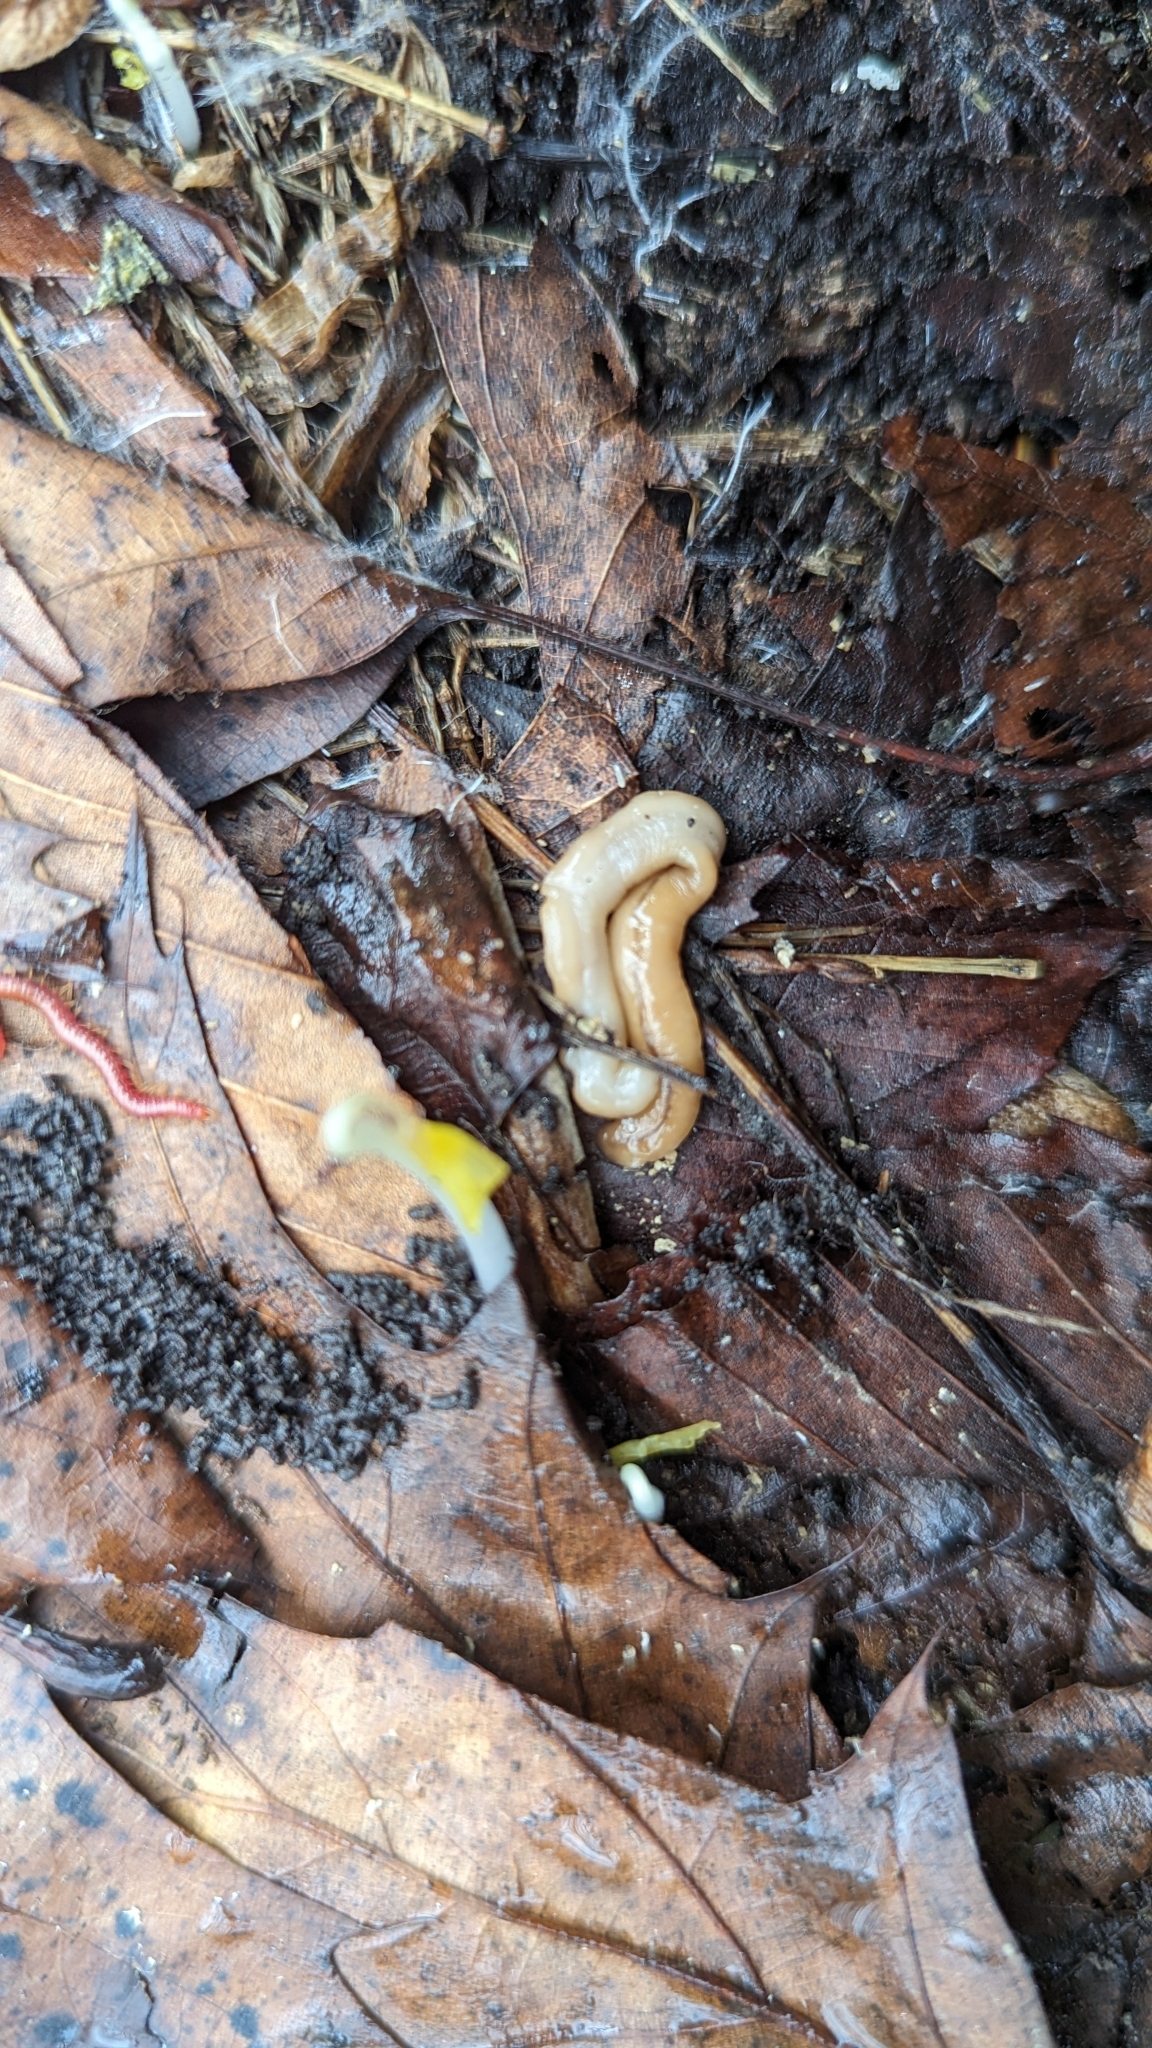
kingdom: Animalia
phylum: Platyhelminthes
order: Tricladida
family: Geoplanidae
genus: Bipalium
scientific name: Bipalium adventitium
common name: Land planarian
